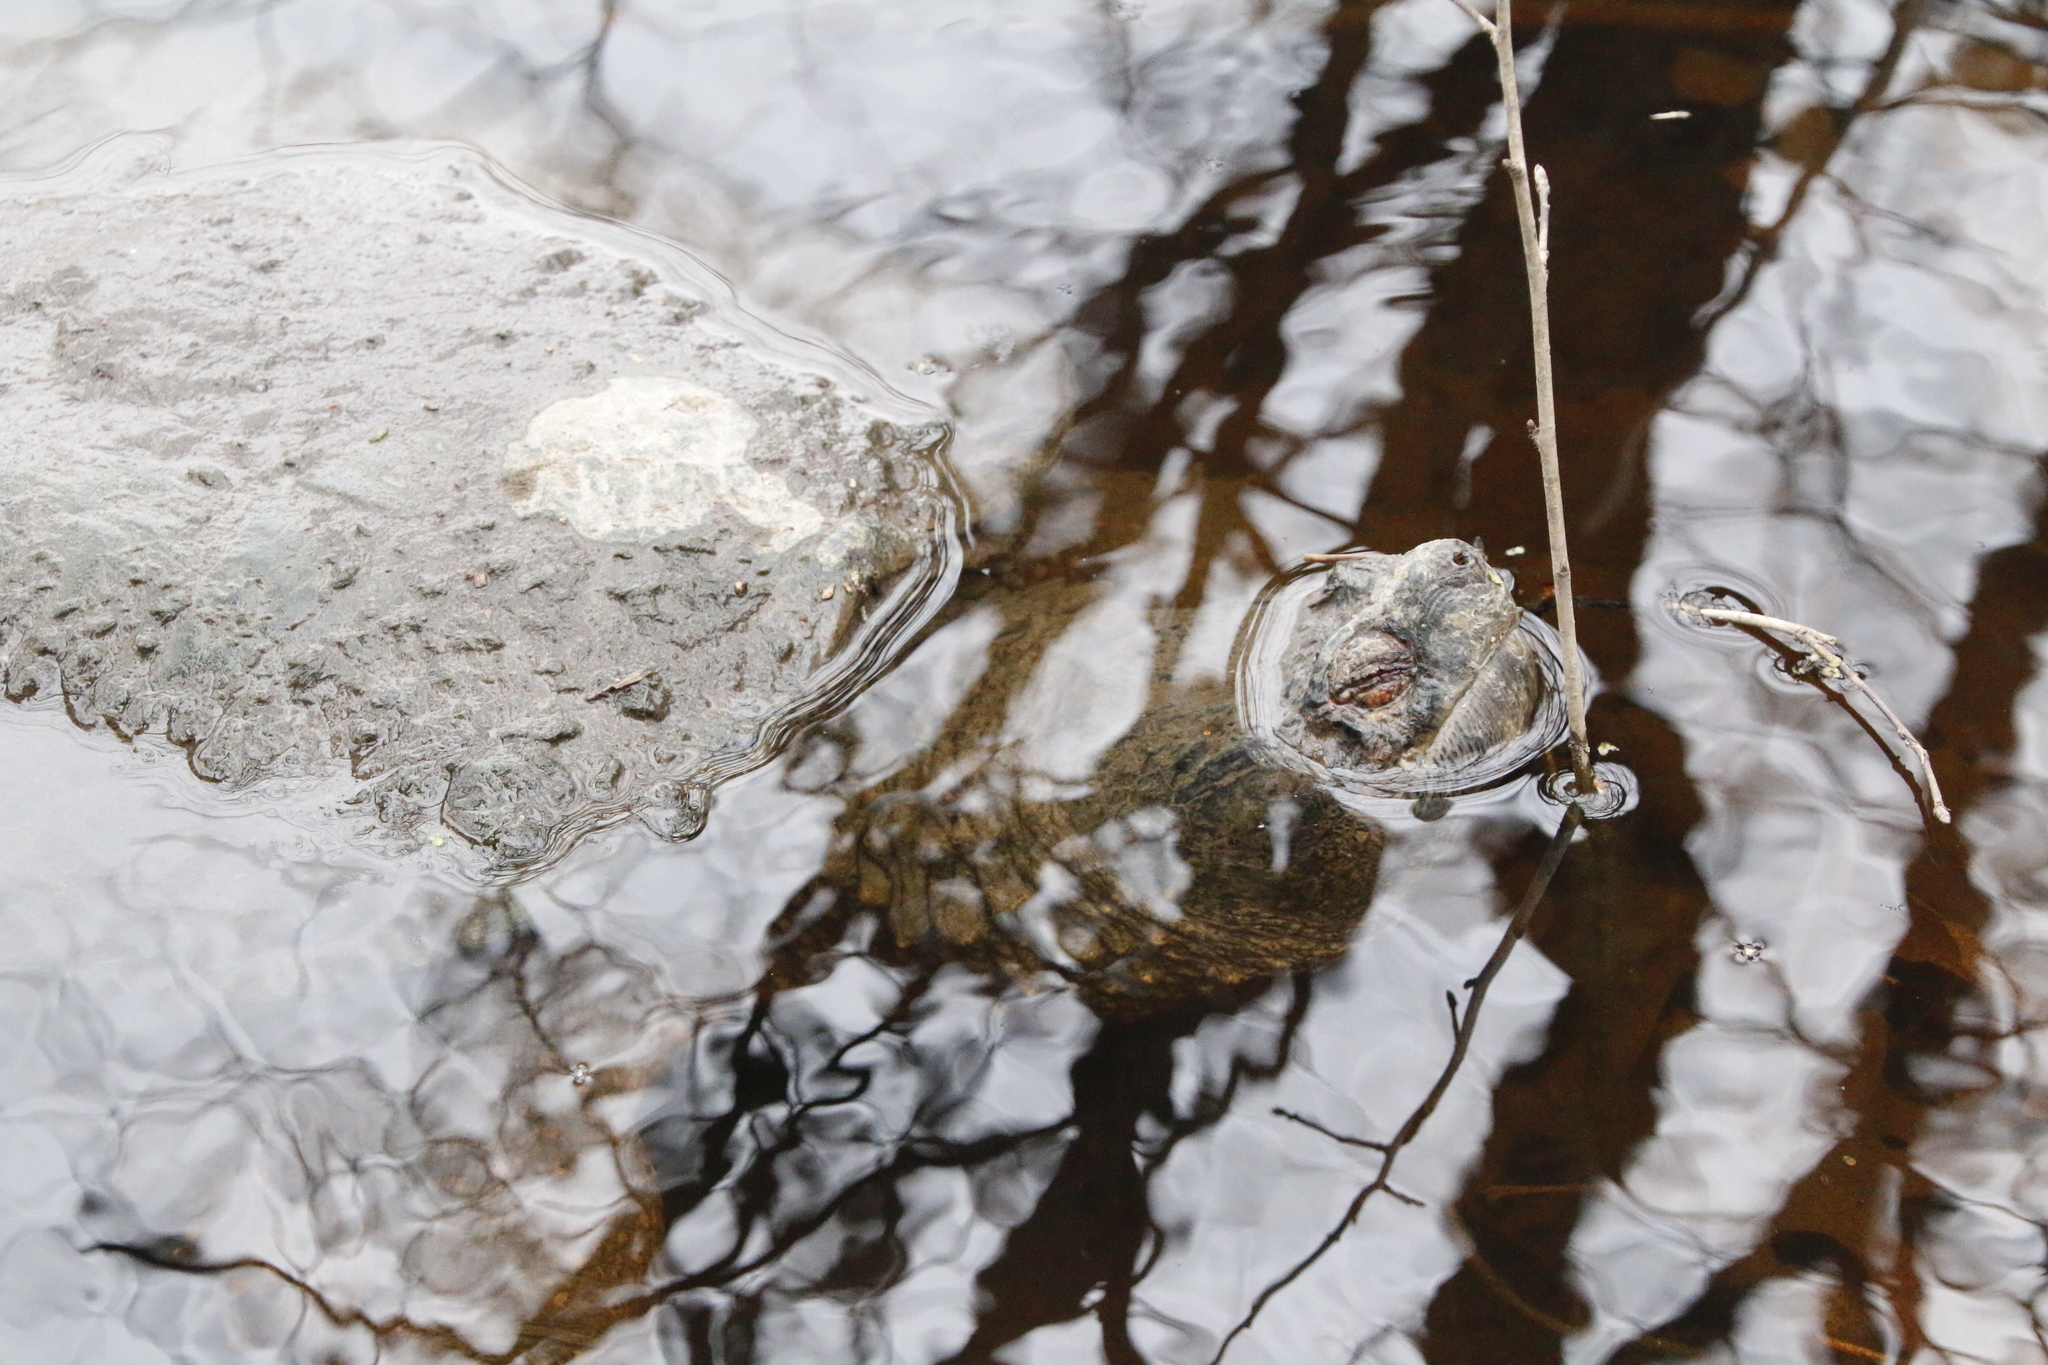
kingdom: Animalia
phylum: Chordata
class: Testudines
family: Chelydridae
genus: Chelydra
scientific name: Chelydra serpentina
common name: Common snapping turtle
